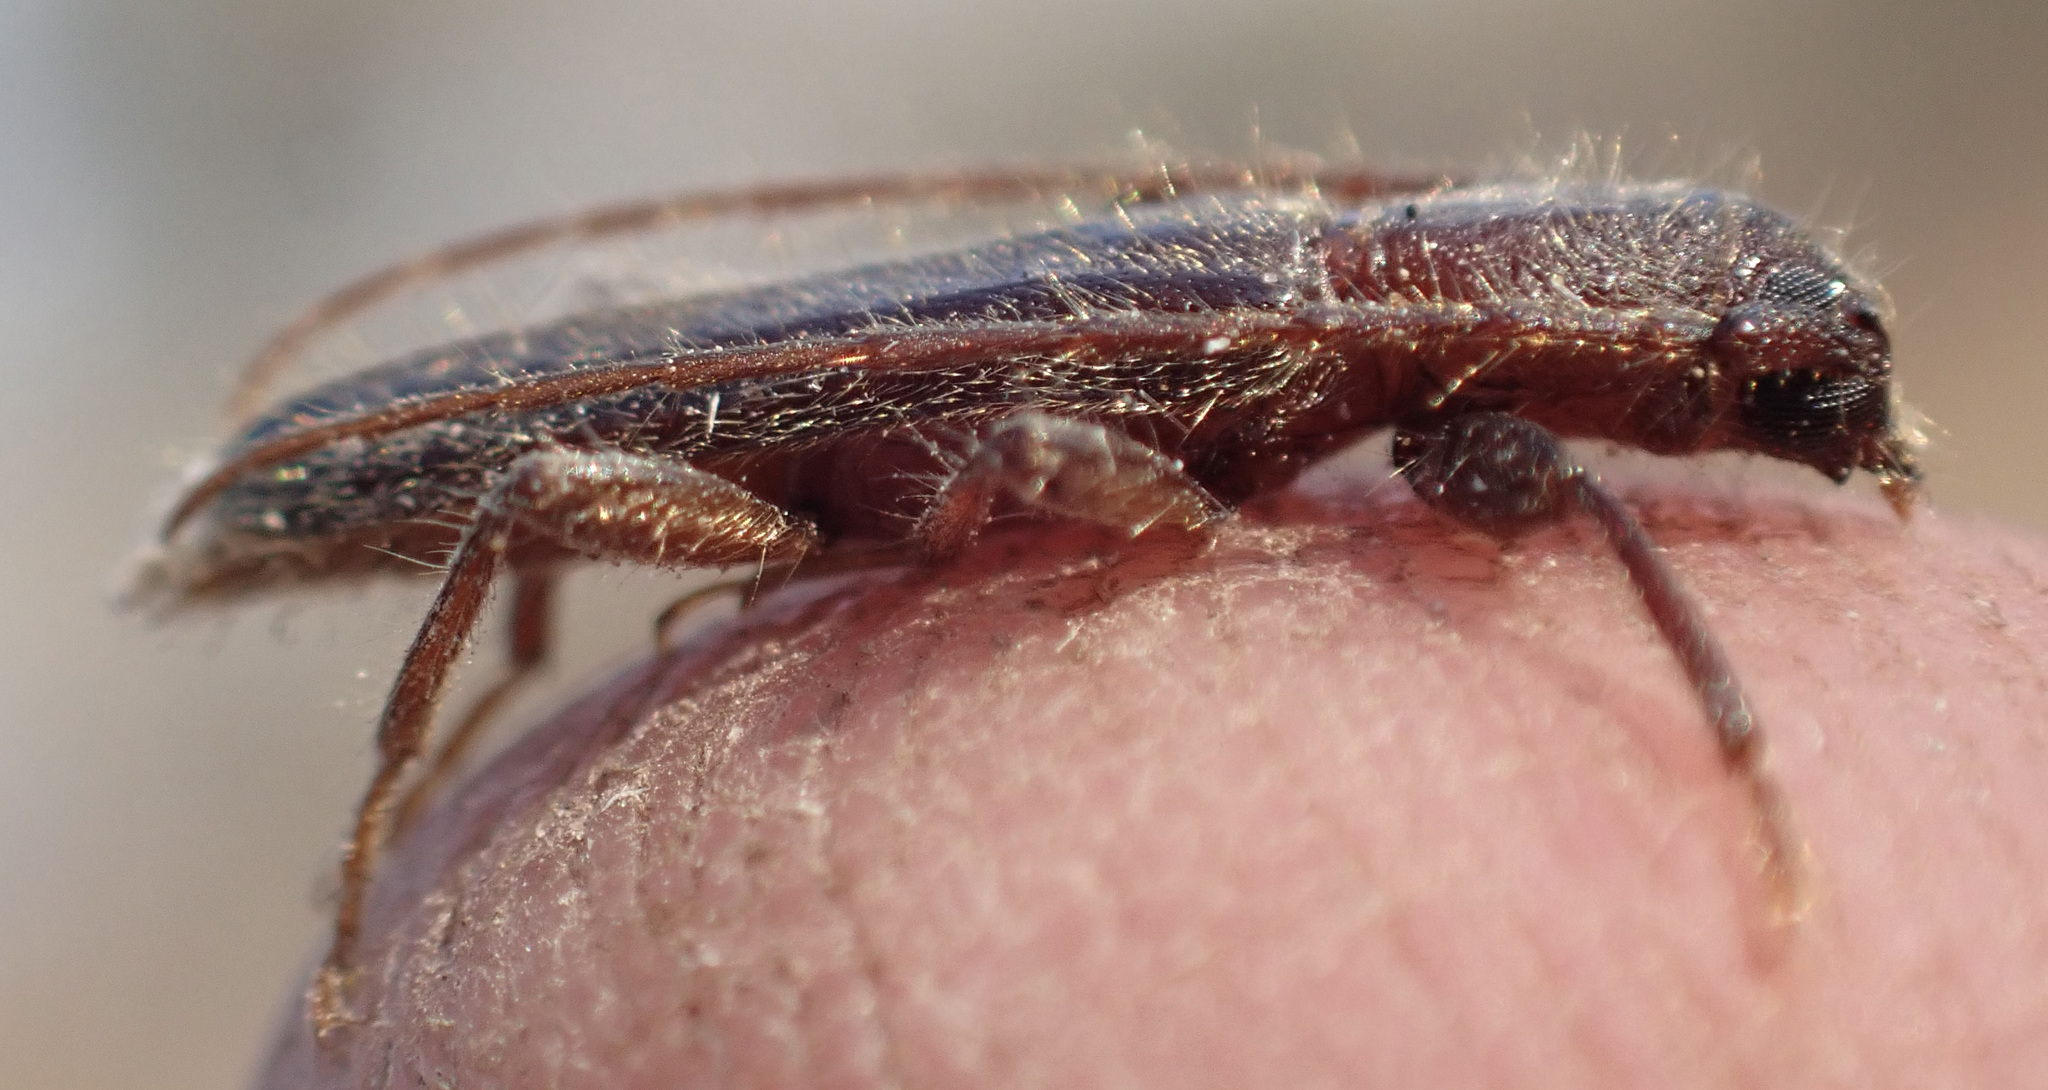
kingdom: Animalia
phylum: Arthropoda
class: Insecta
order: Coleoptera
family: Cerambycidae
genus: Zamium
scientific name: Zamium incultum
